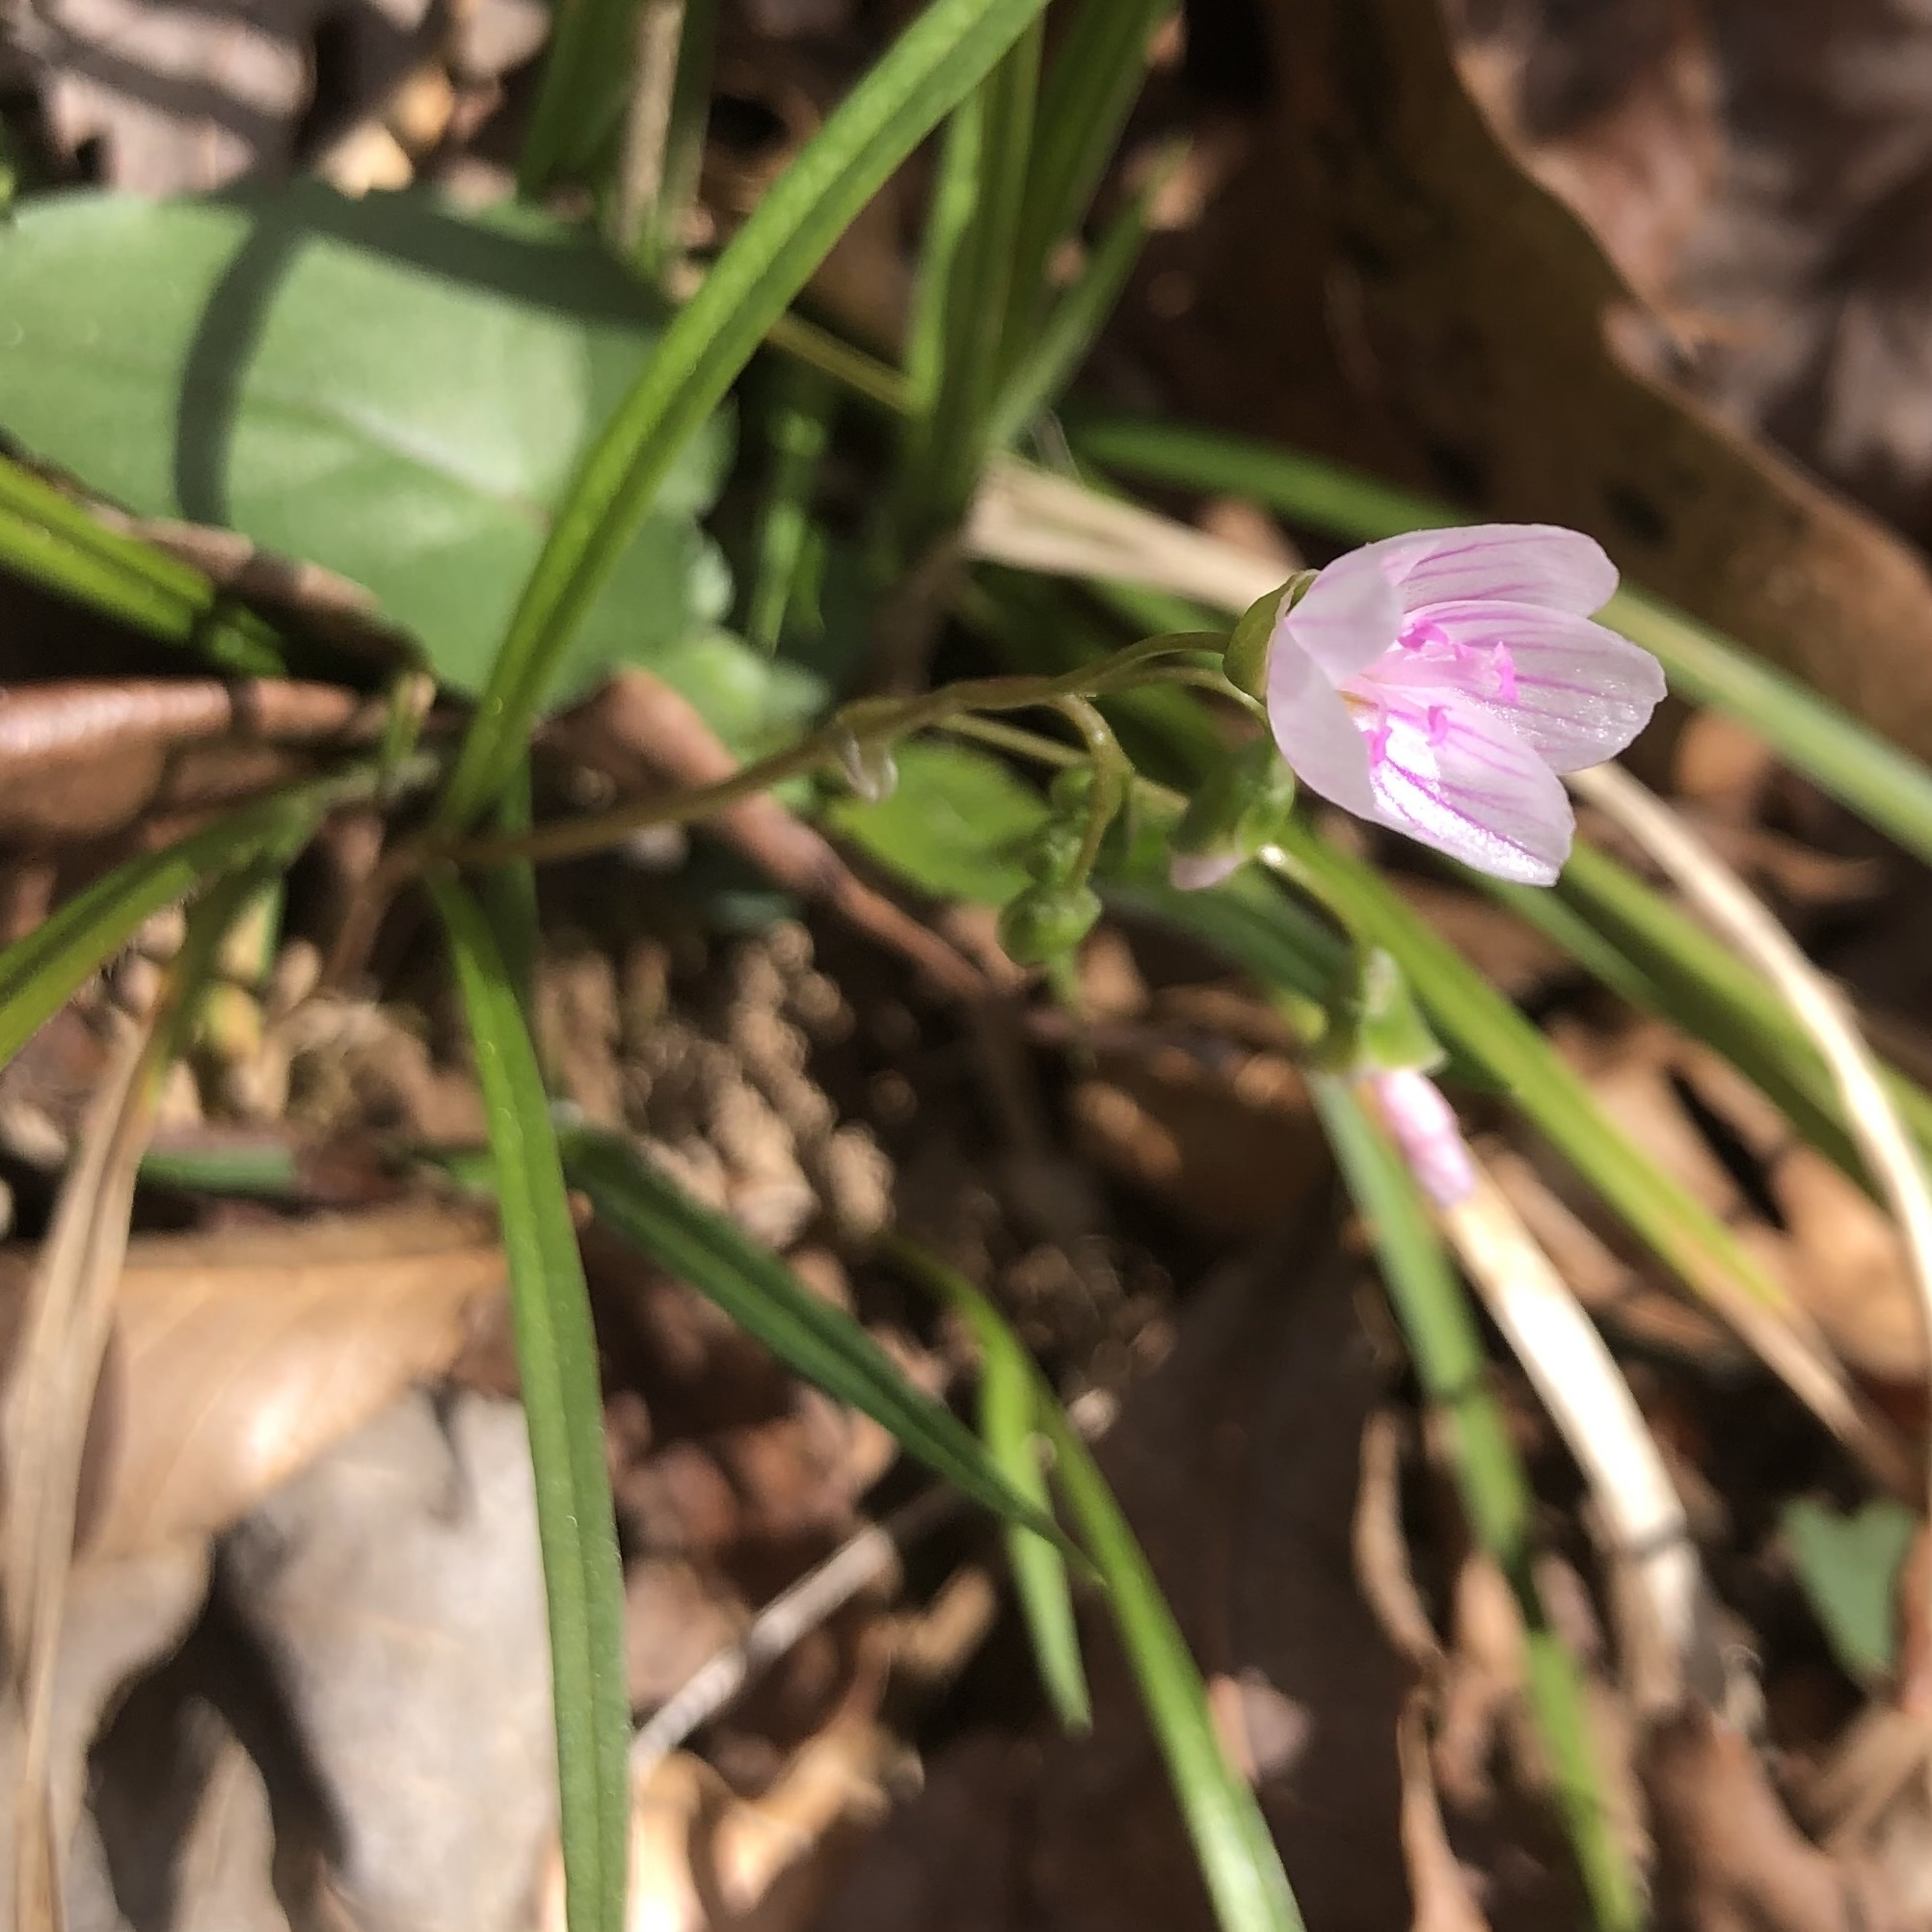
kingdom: Plantae
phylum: Tracheophyta
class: Magnoliopsida
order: Caryophyllales
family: Montiaceae
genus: Claytonia
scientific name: Claytonia virginica
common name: Virginia springbeauty
